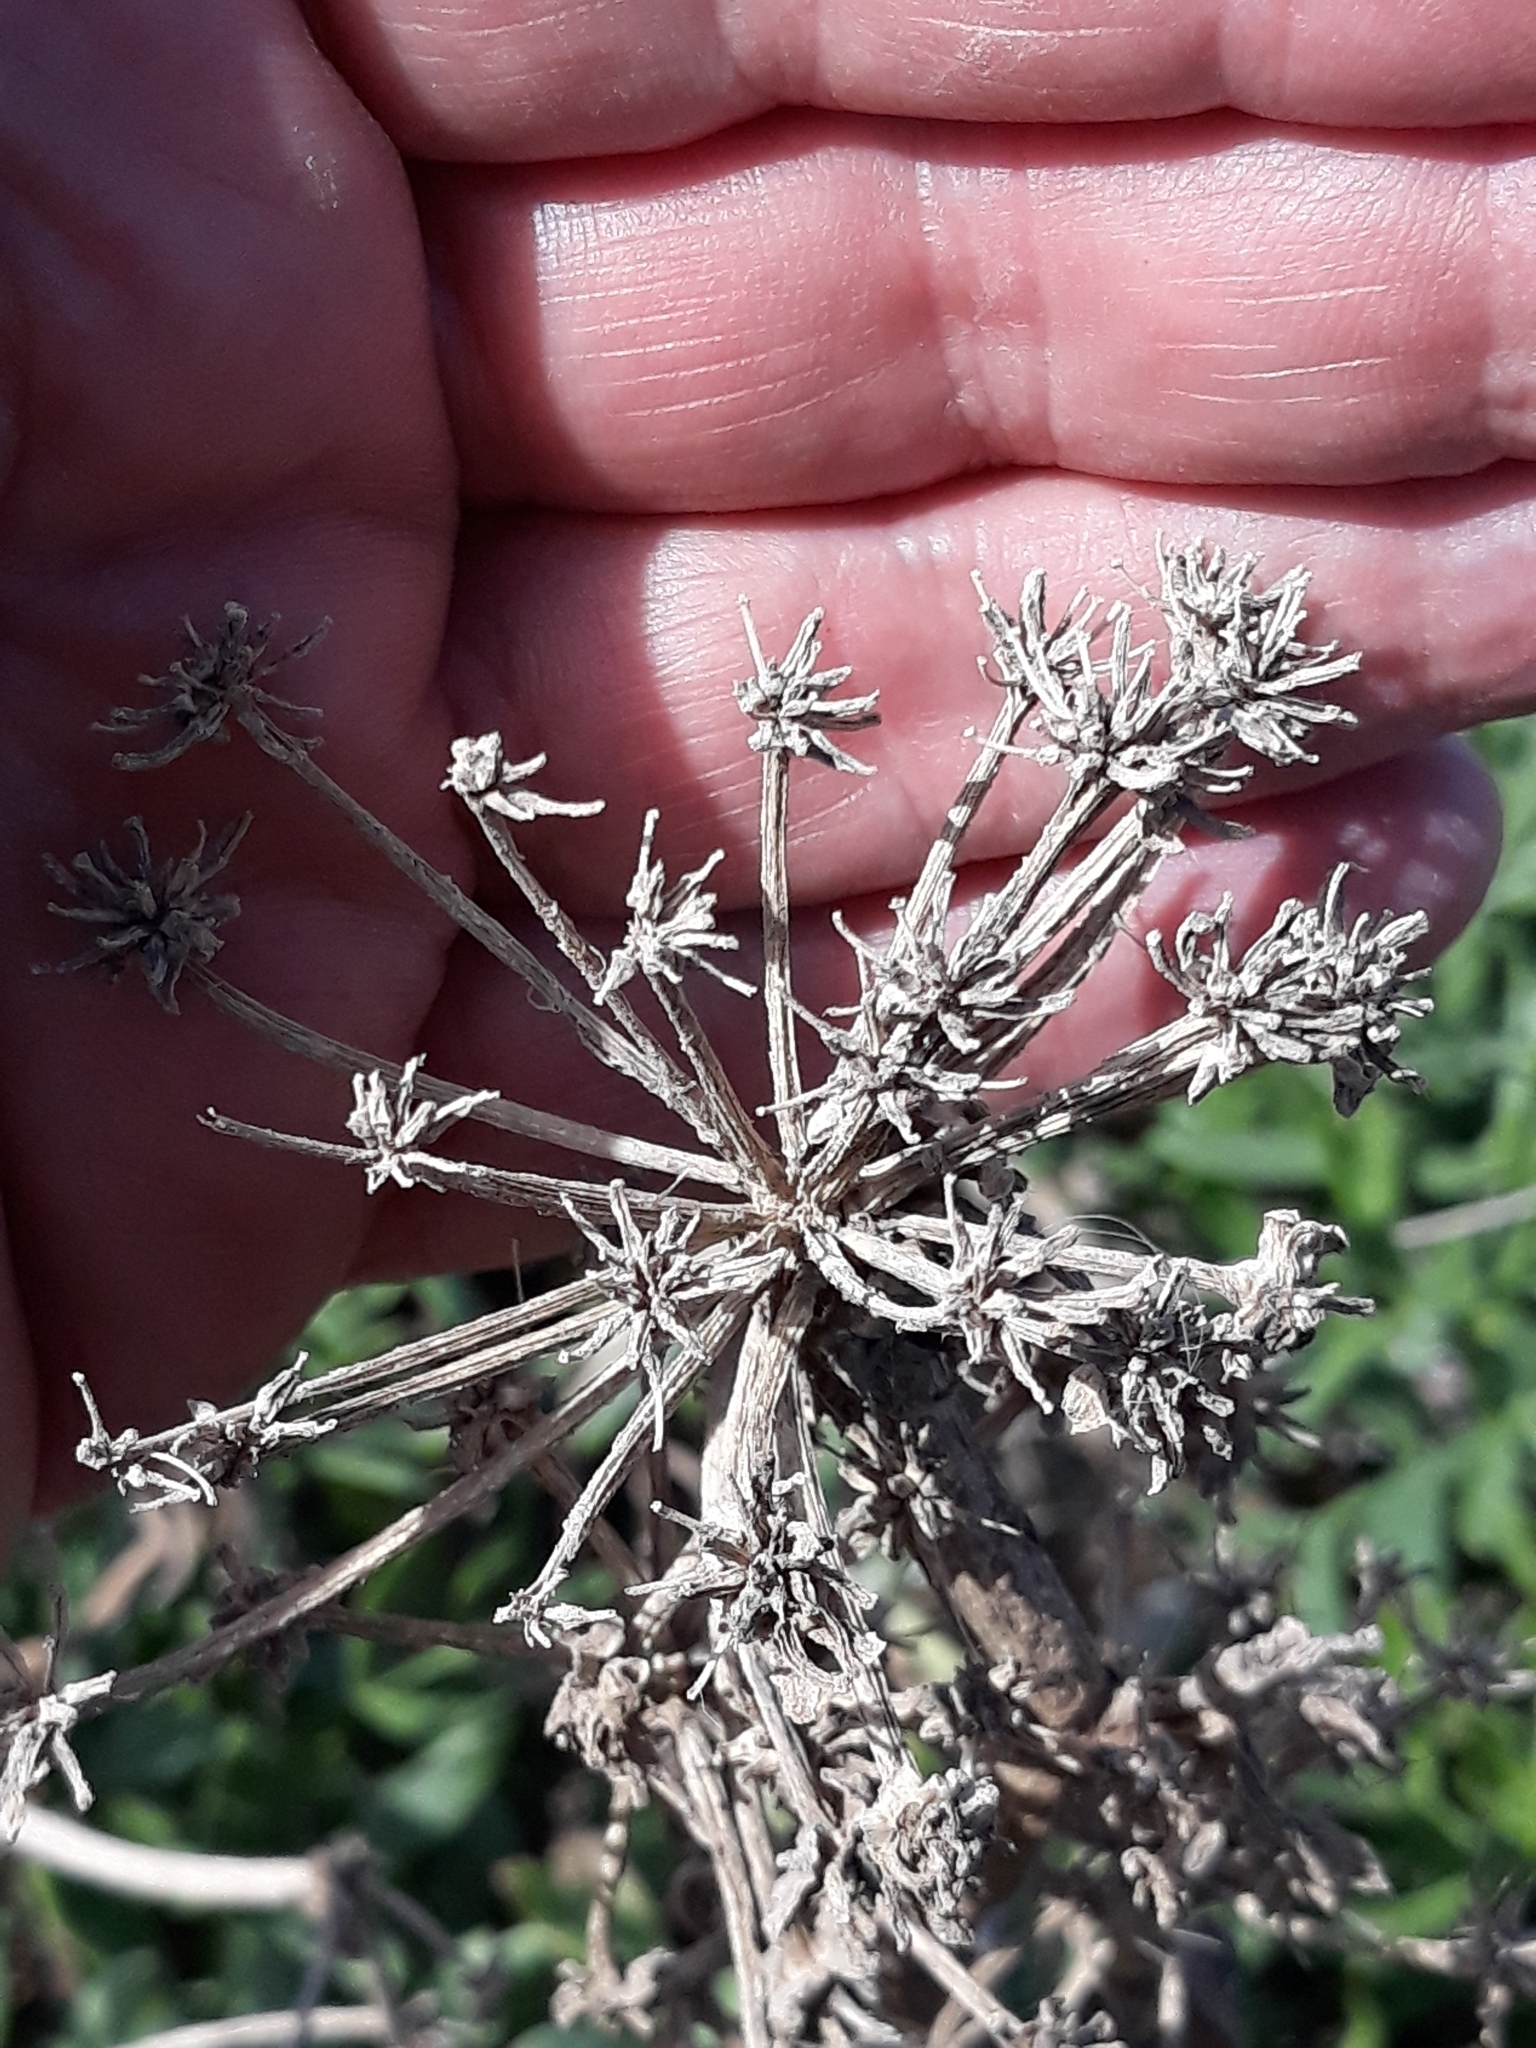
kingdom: Plantae
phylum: Tracheophyta
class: Magnoliopsida
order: Apiales
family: Apiaceae
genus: Crithmum
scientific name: Crithmum maritimum
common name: Rock samphire
